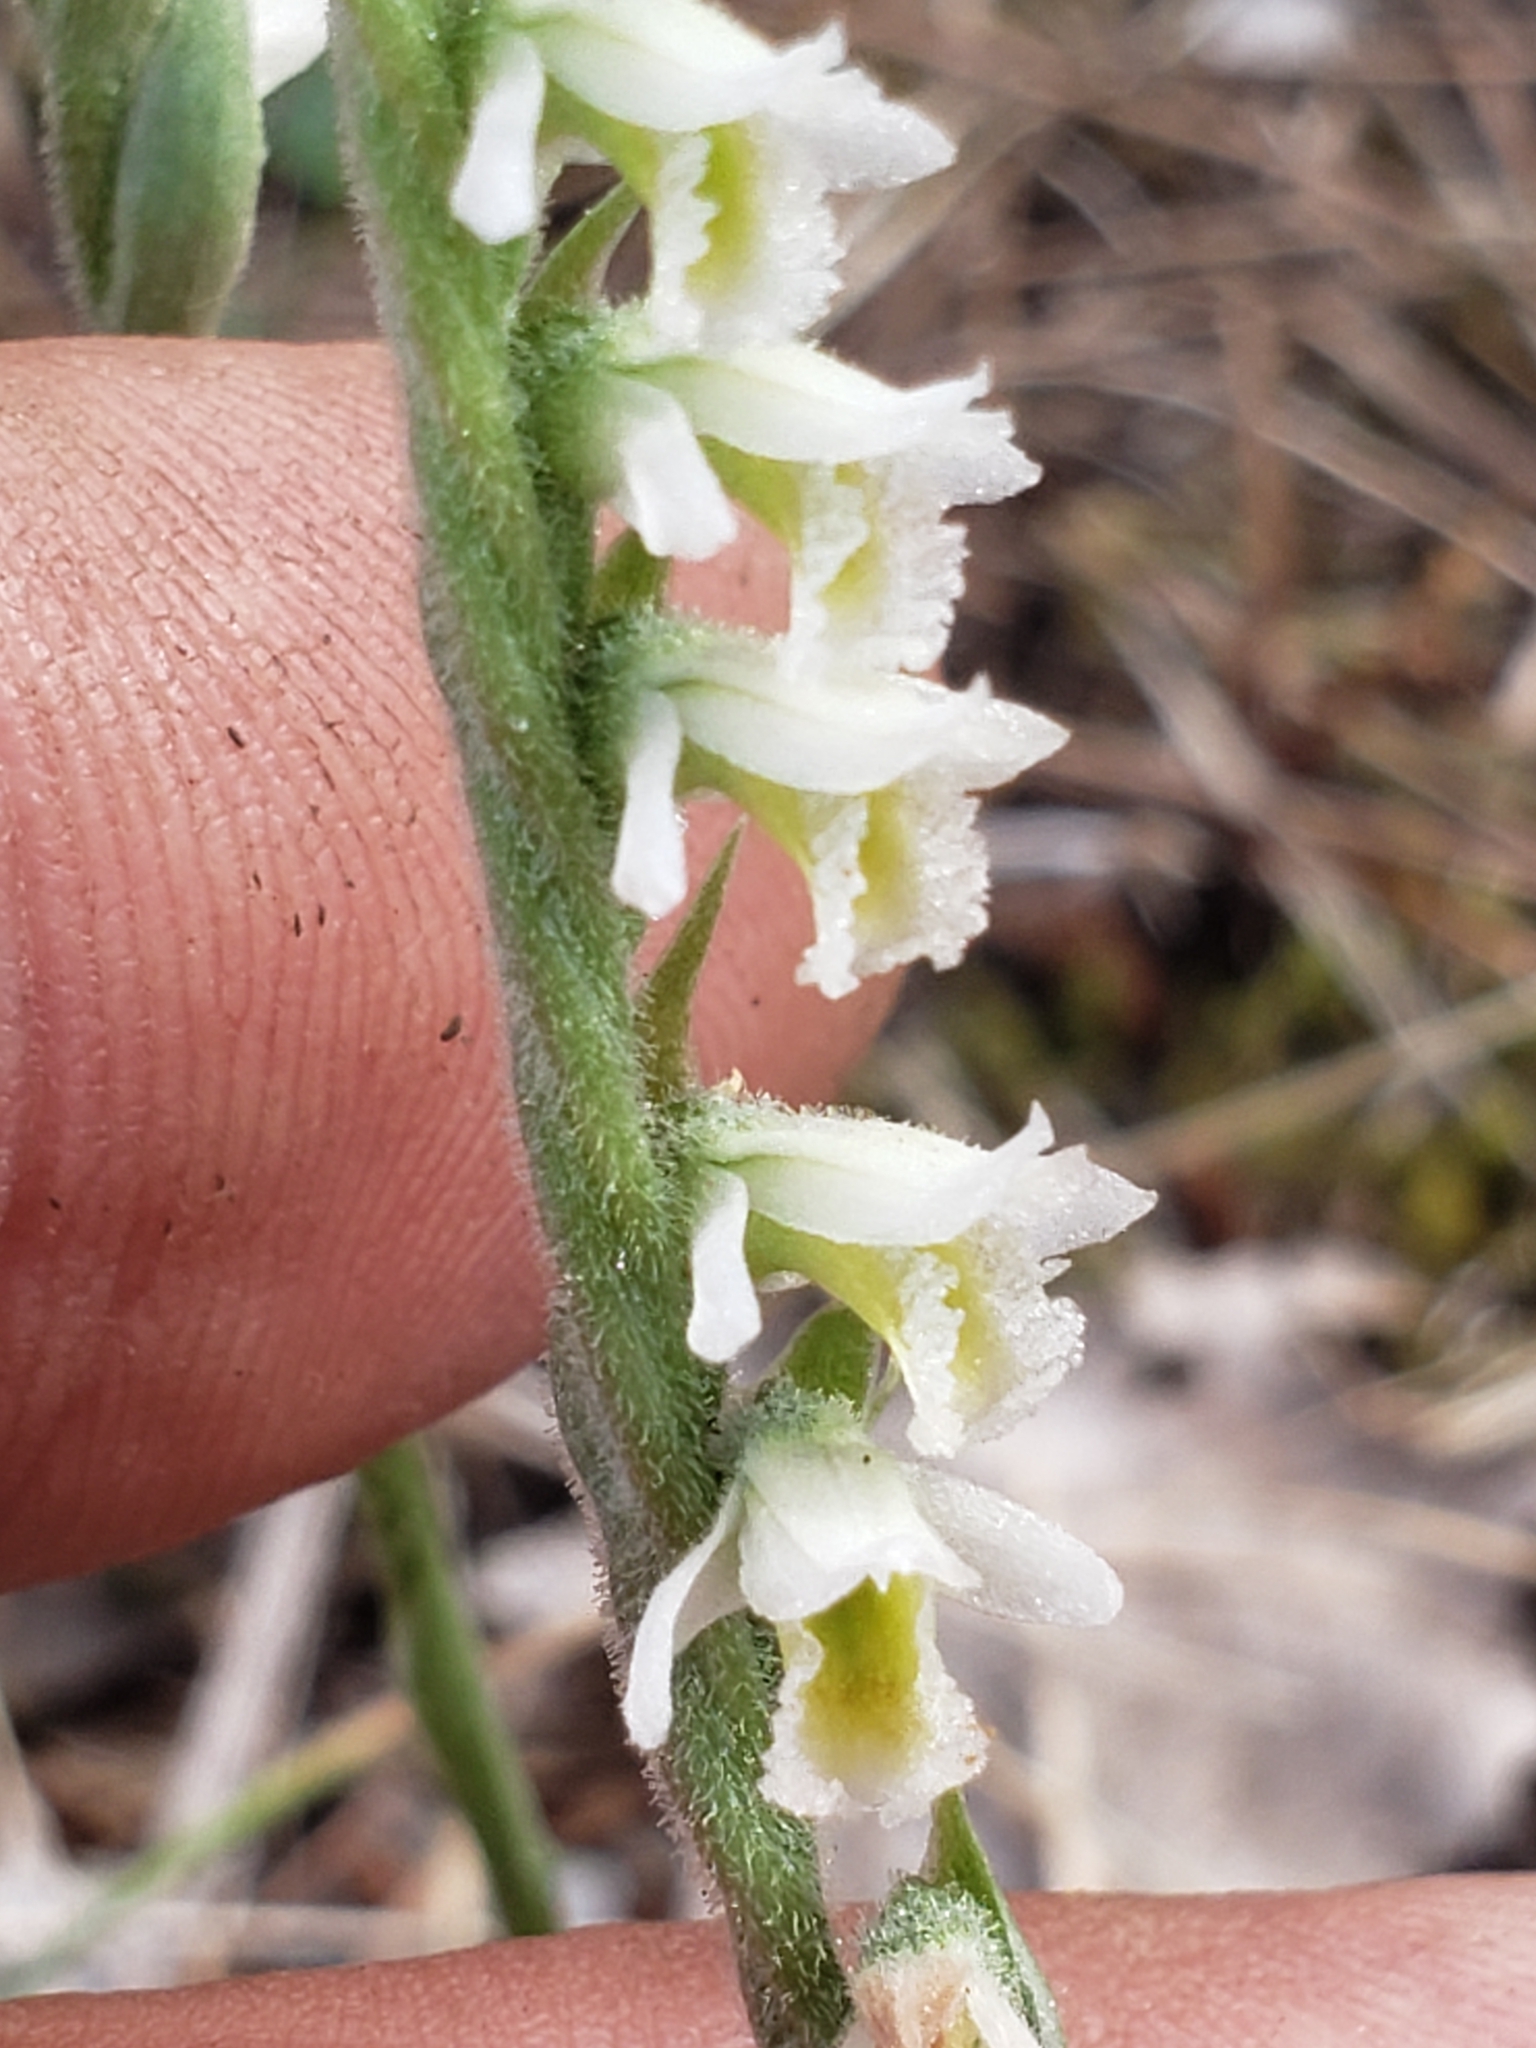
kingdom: Plantae
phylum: Tracheophyta
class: Liliopsida
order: Asparagales
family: Orchidaceae
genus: Spiranthes
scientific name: Spiranthes spiralis
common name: Autumn lady's-tresses
